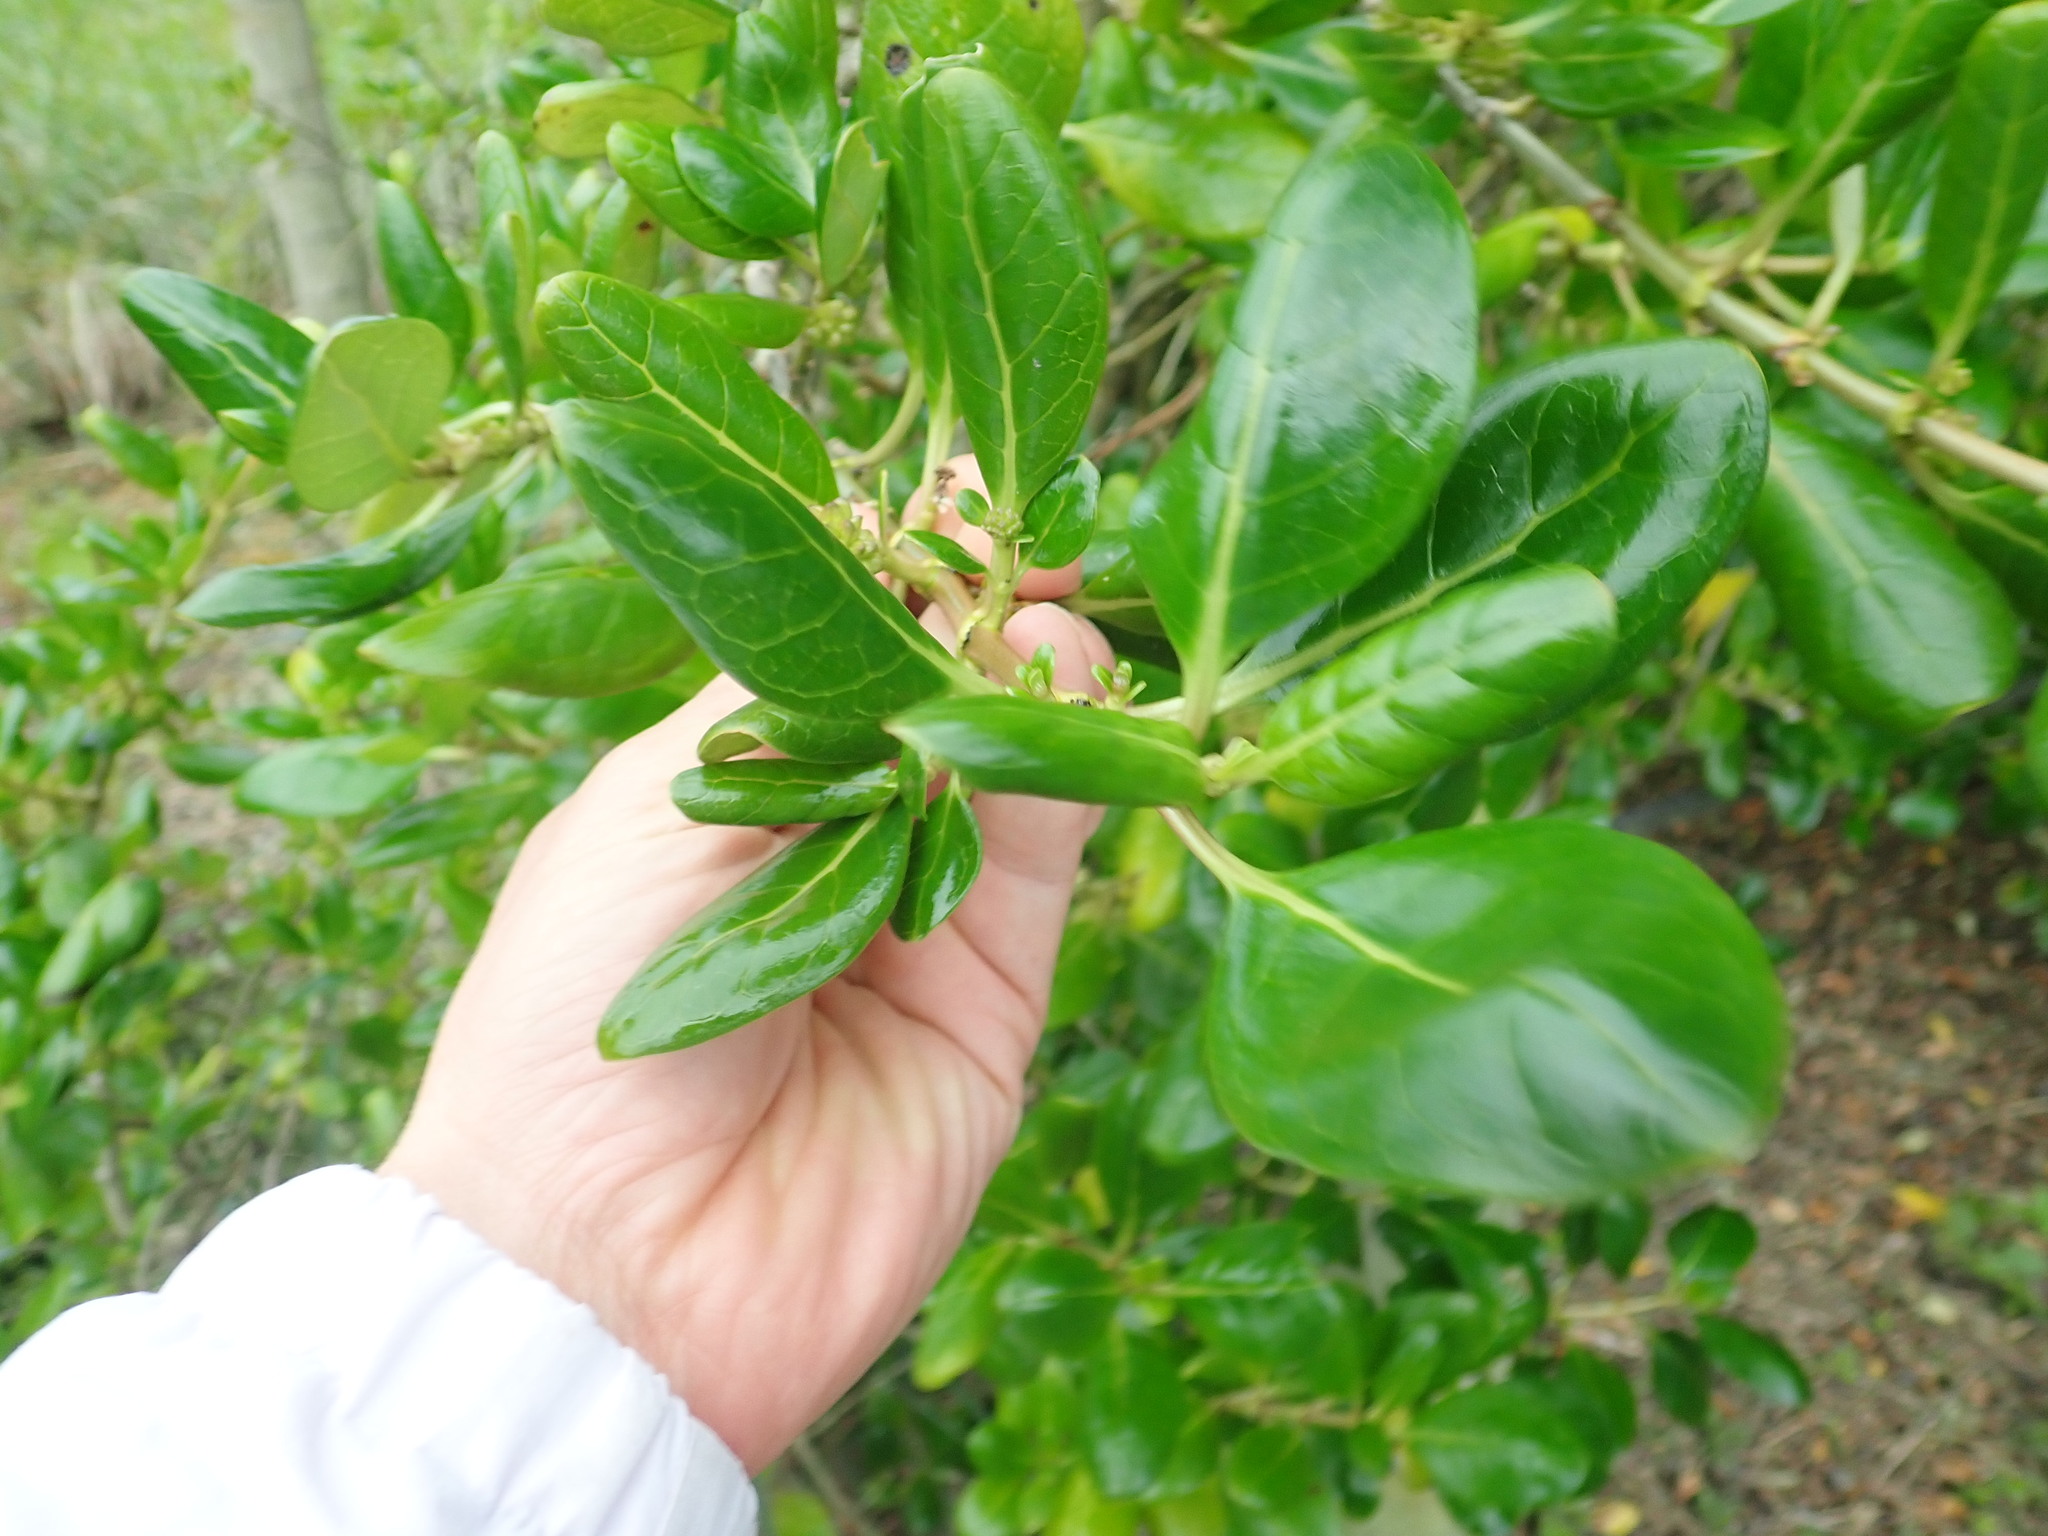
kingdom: Plantae
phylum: Tracheophyta
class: Magnoliopsida
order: Gentianales
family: Rubiaceae
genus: Coprosma
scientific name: Coprosma repens
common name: Tree bedstraw
